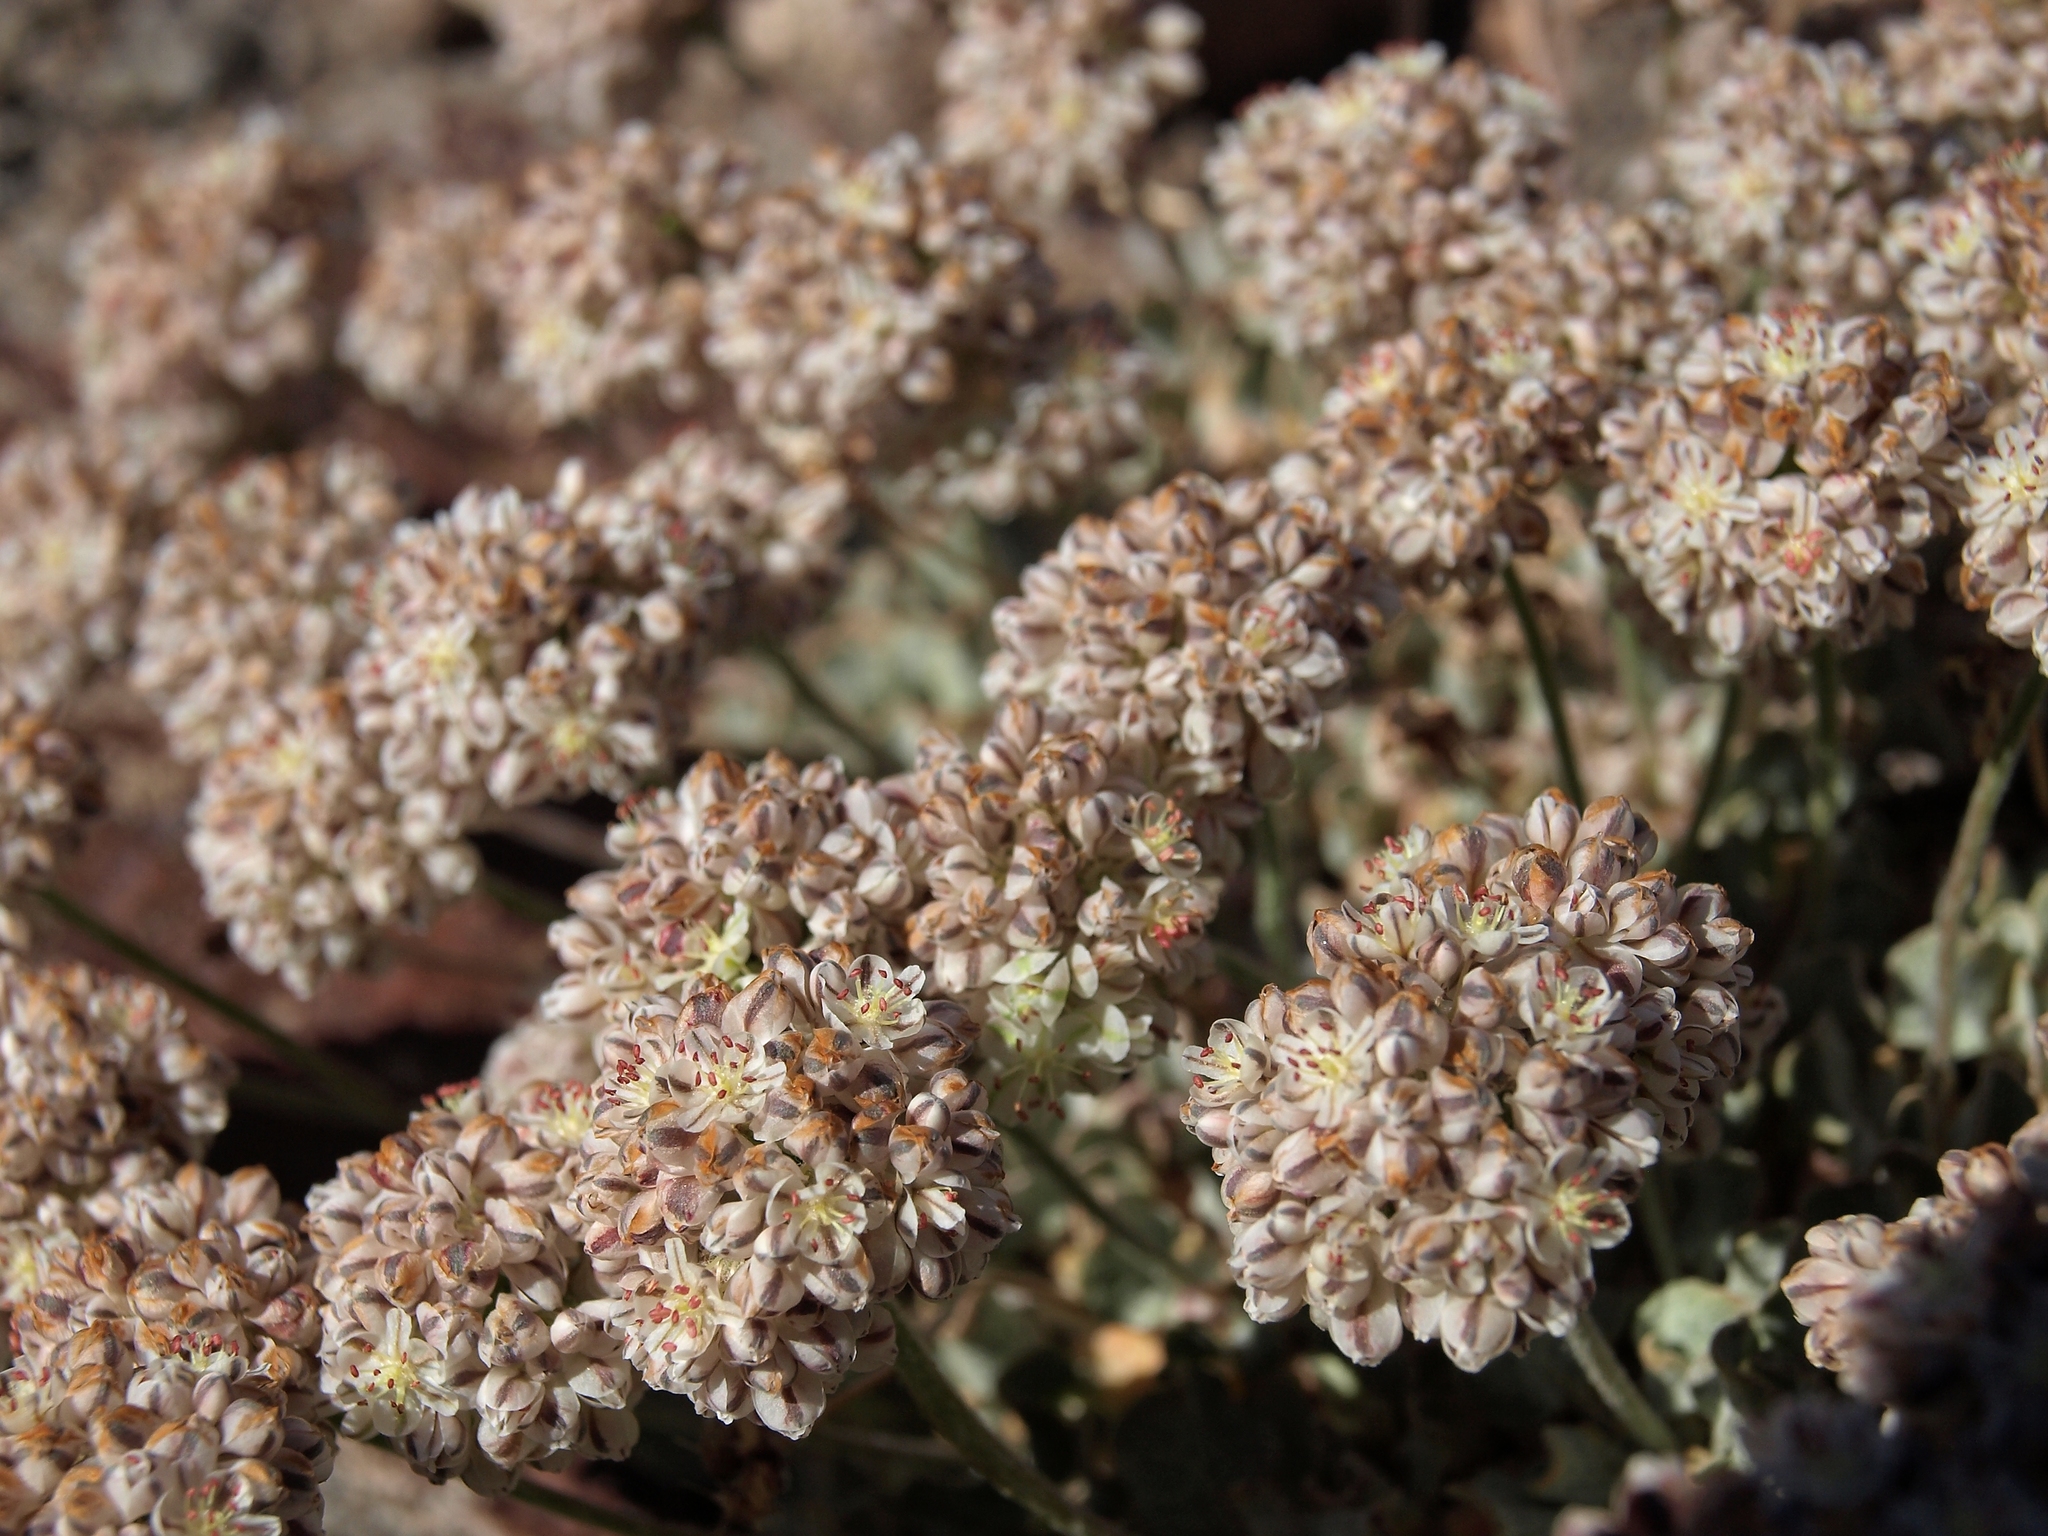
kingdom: Plantae
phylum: Tracheophyta
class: Magnoliopsida
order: Caryophyllales
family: Polygonaceae
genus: Eriogonum
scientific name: Eriogonum ovalifolium
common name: Cushion buckwheat
